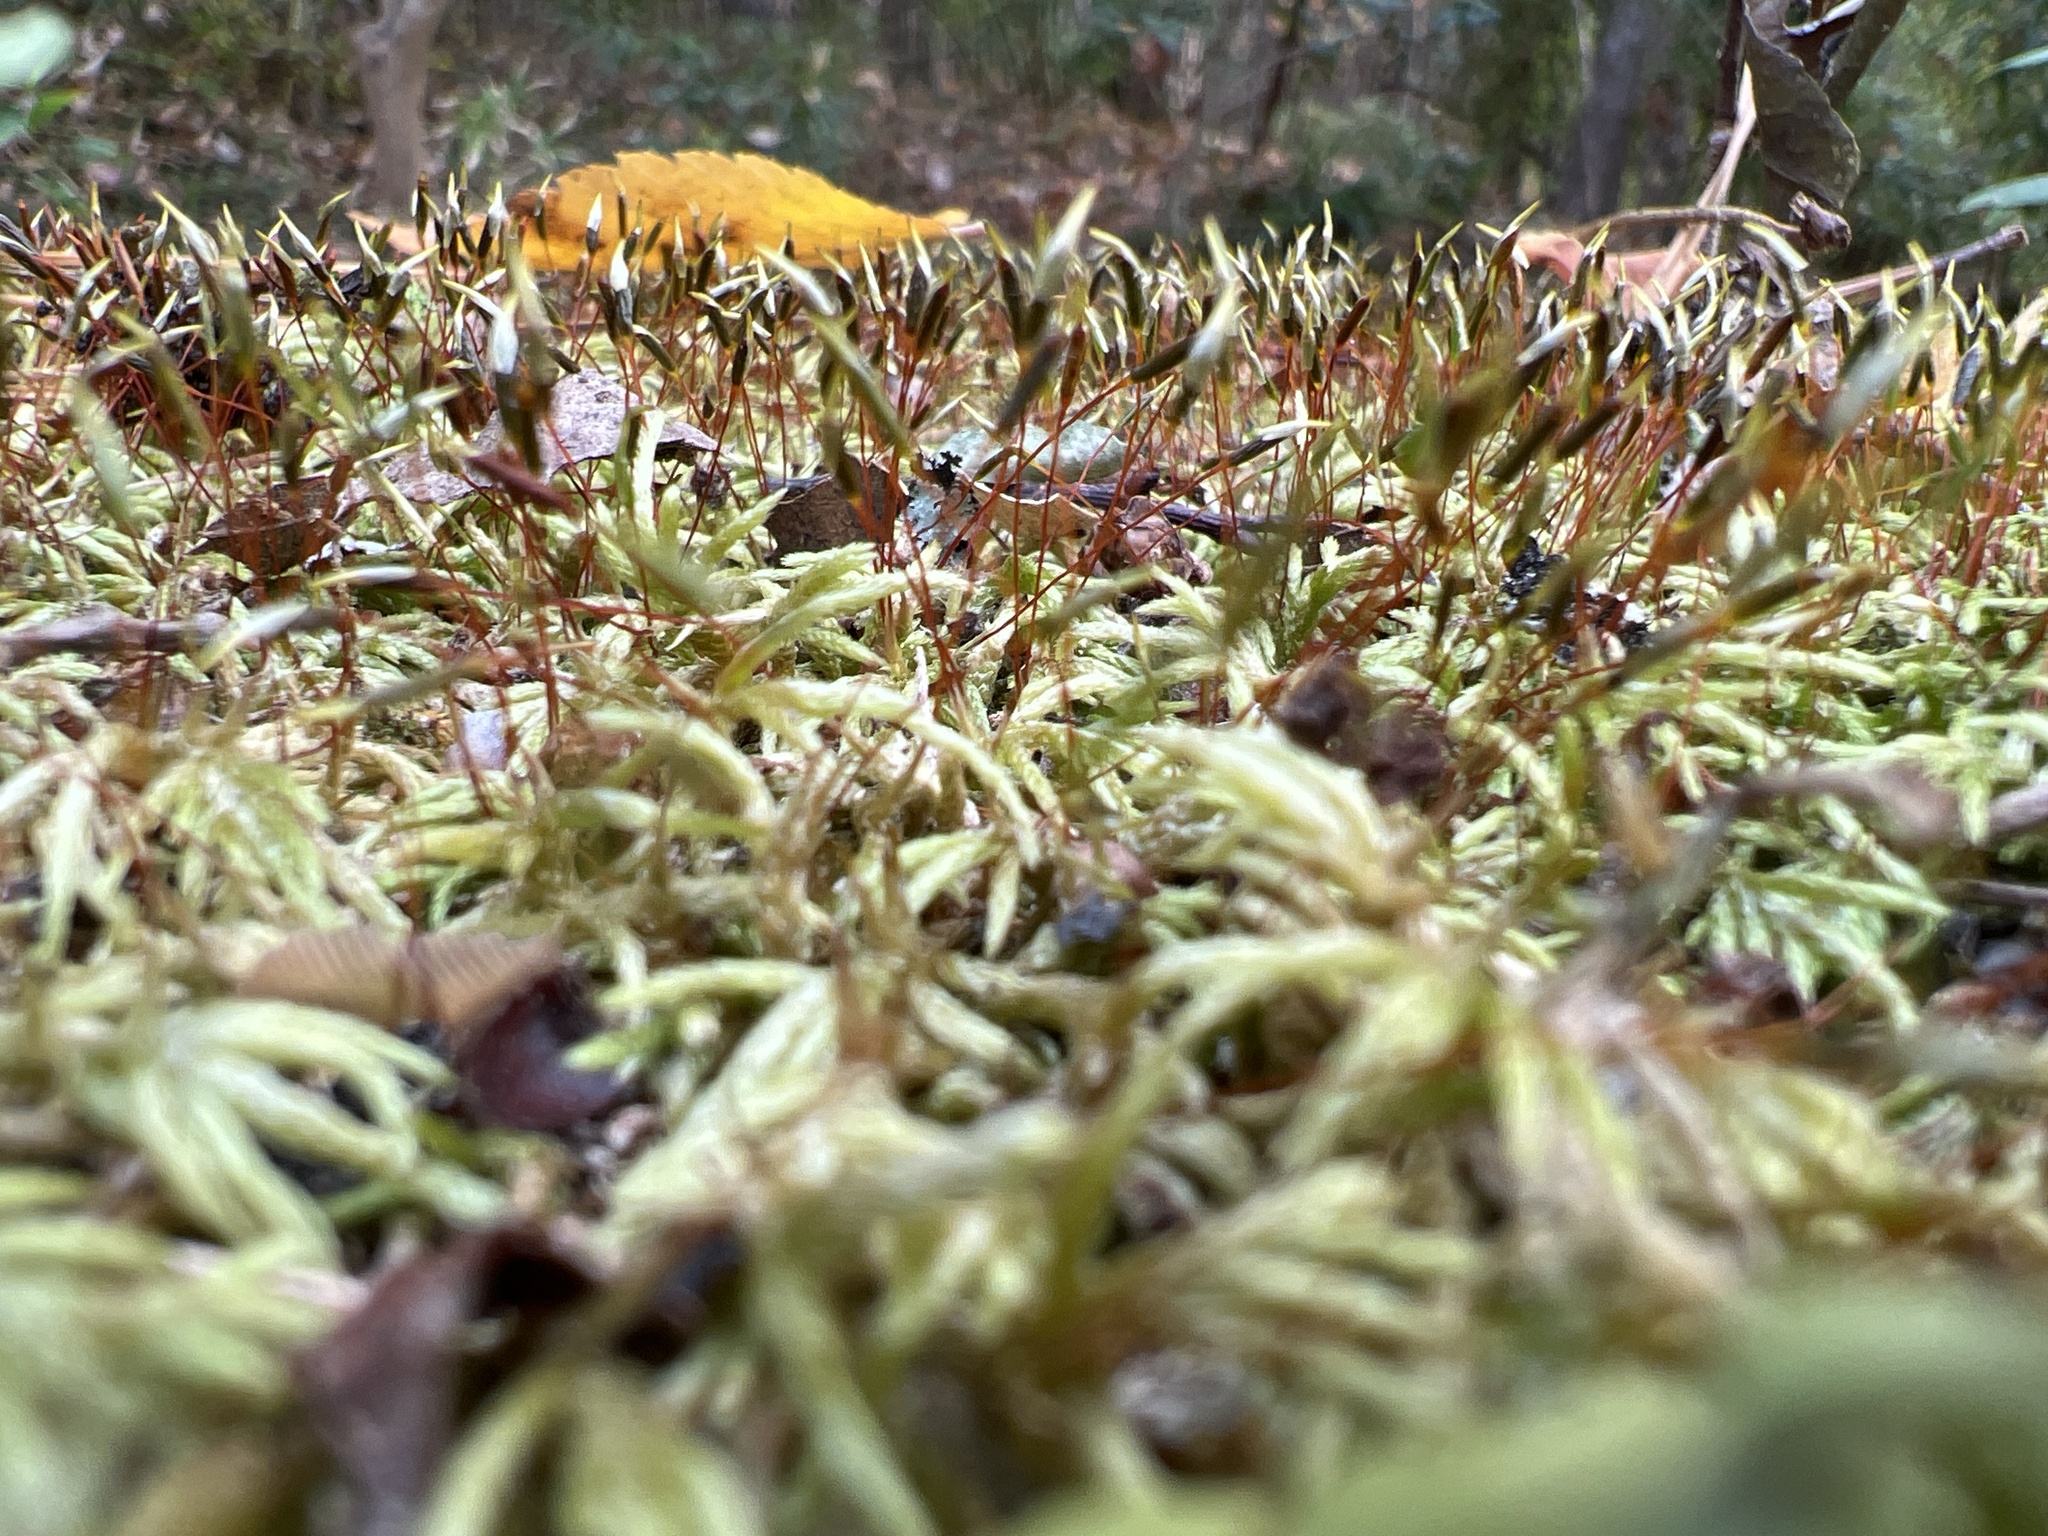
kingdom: Plantae
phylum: Bryophyta
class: Bryopsida
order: Hypnales
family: Entodontaceae
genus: Entodon
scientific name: Entodon seductrix
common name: Round-stemmed entodon moss
